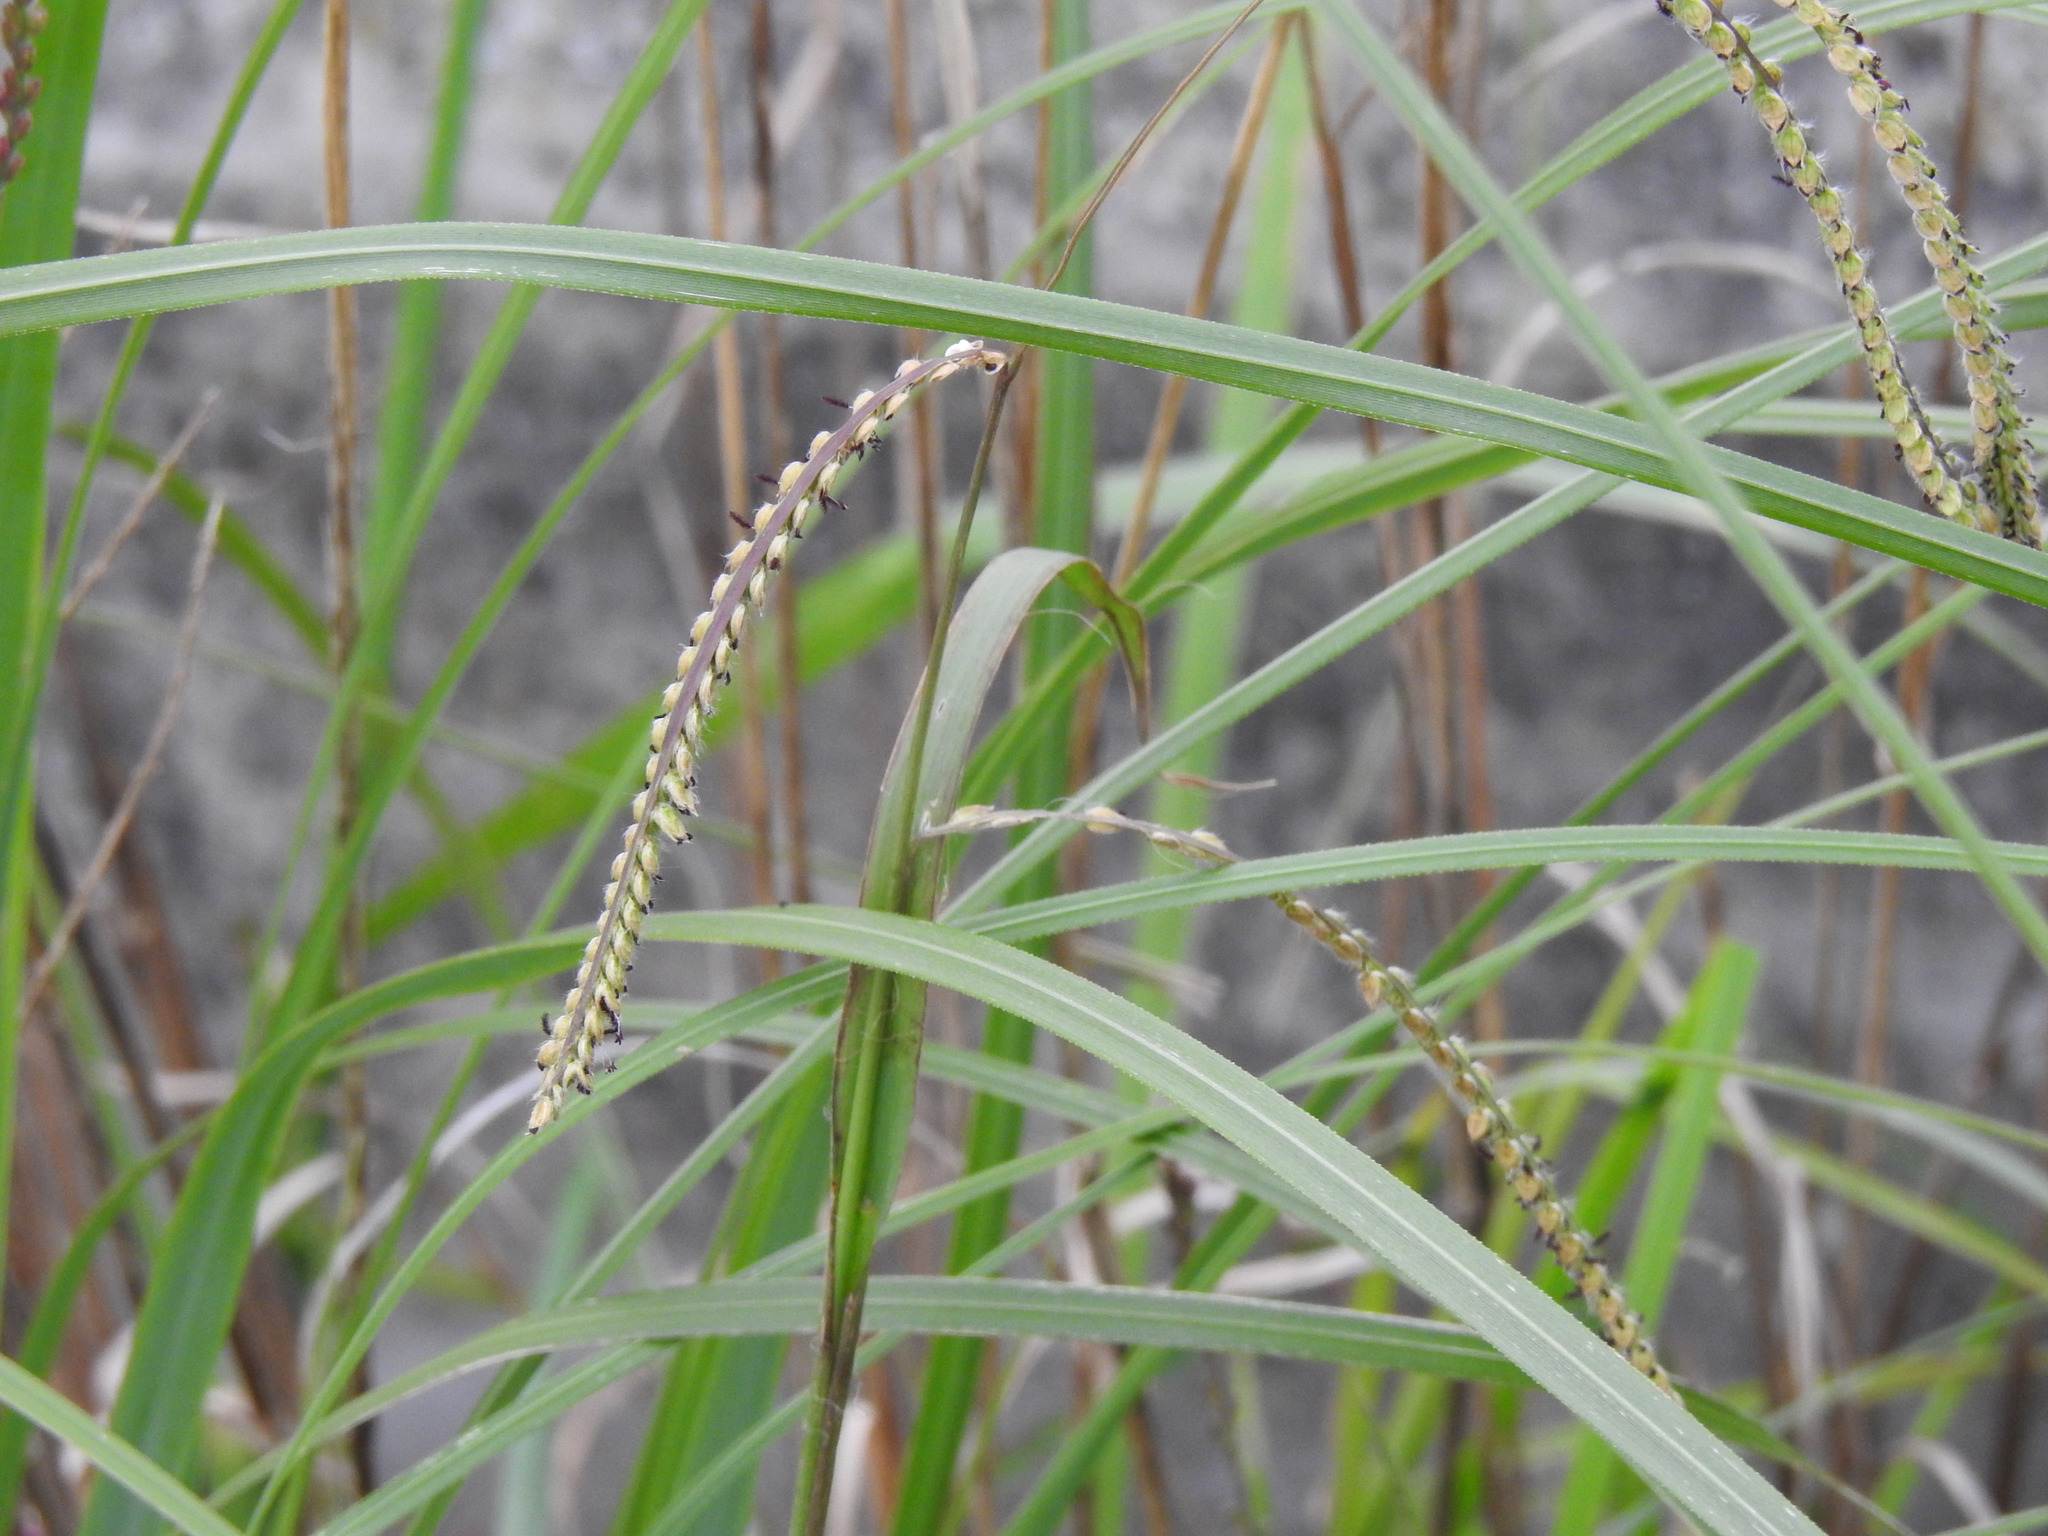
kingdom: Plantae
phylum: Tracheophyta
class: Liliopsida
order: Poales
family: Poaceae
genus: Paspalum
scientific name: Paspalum dilatatum
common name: Dallisgrass
